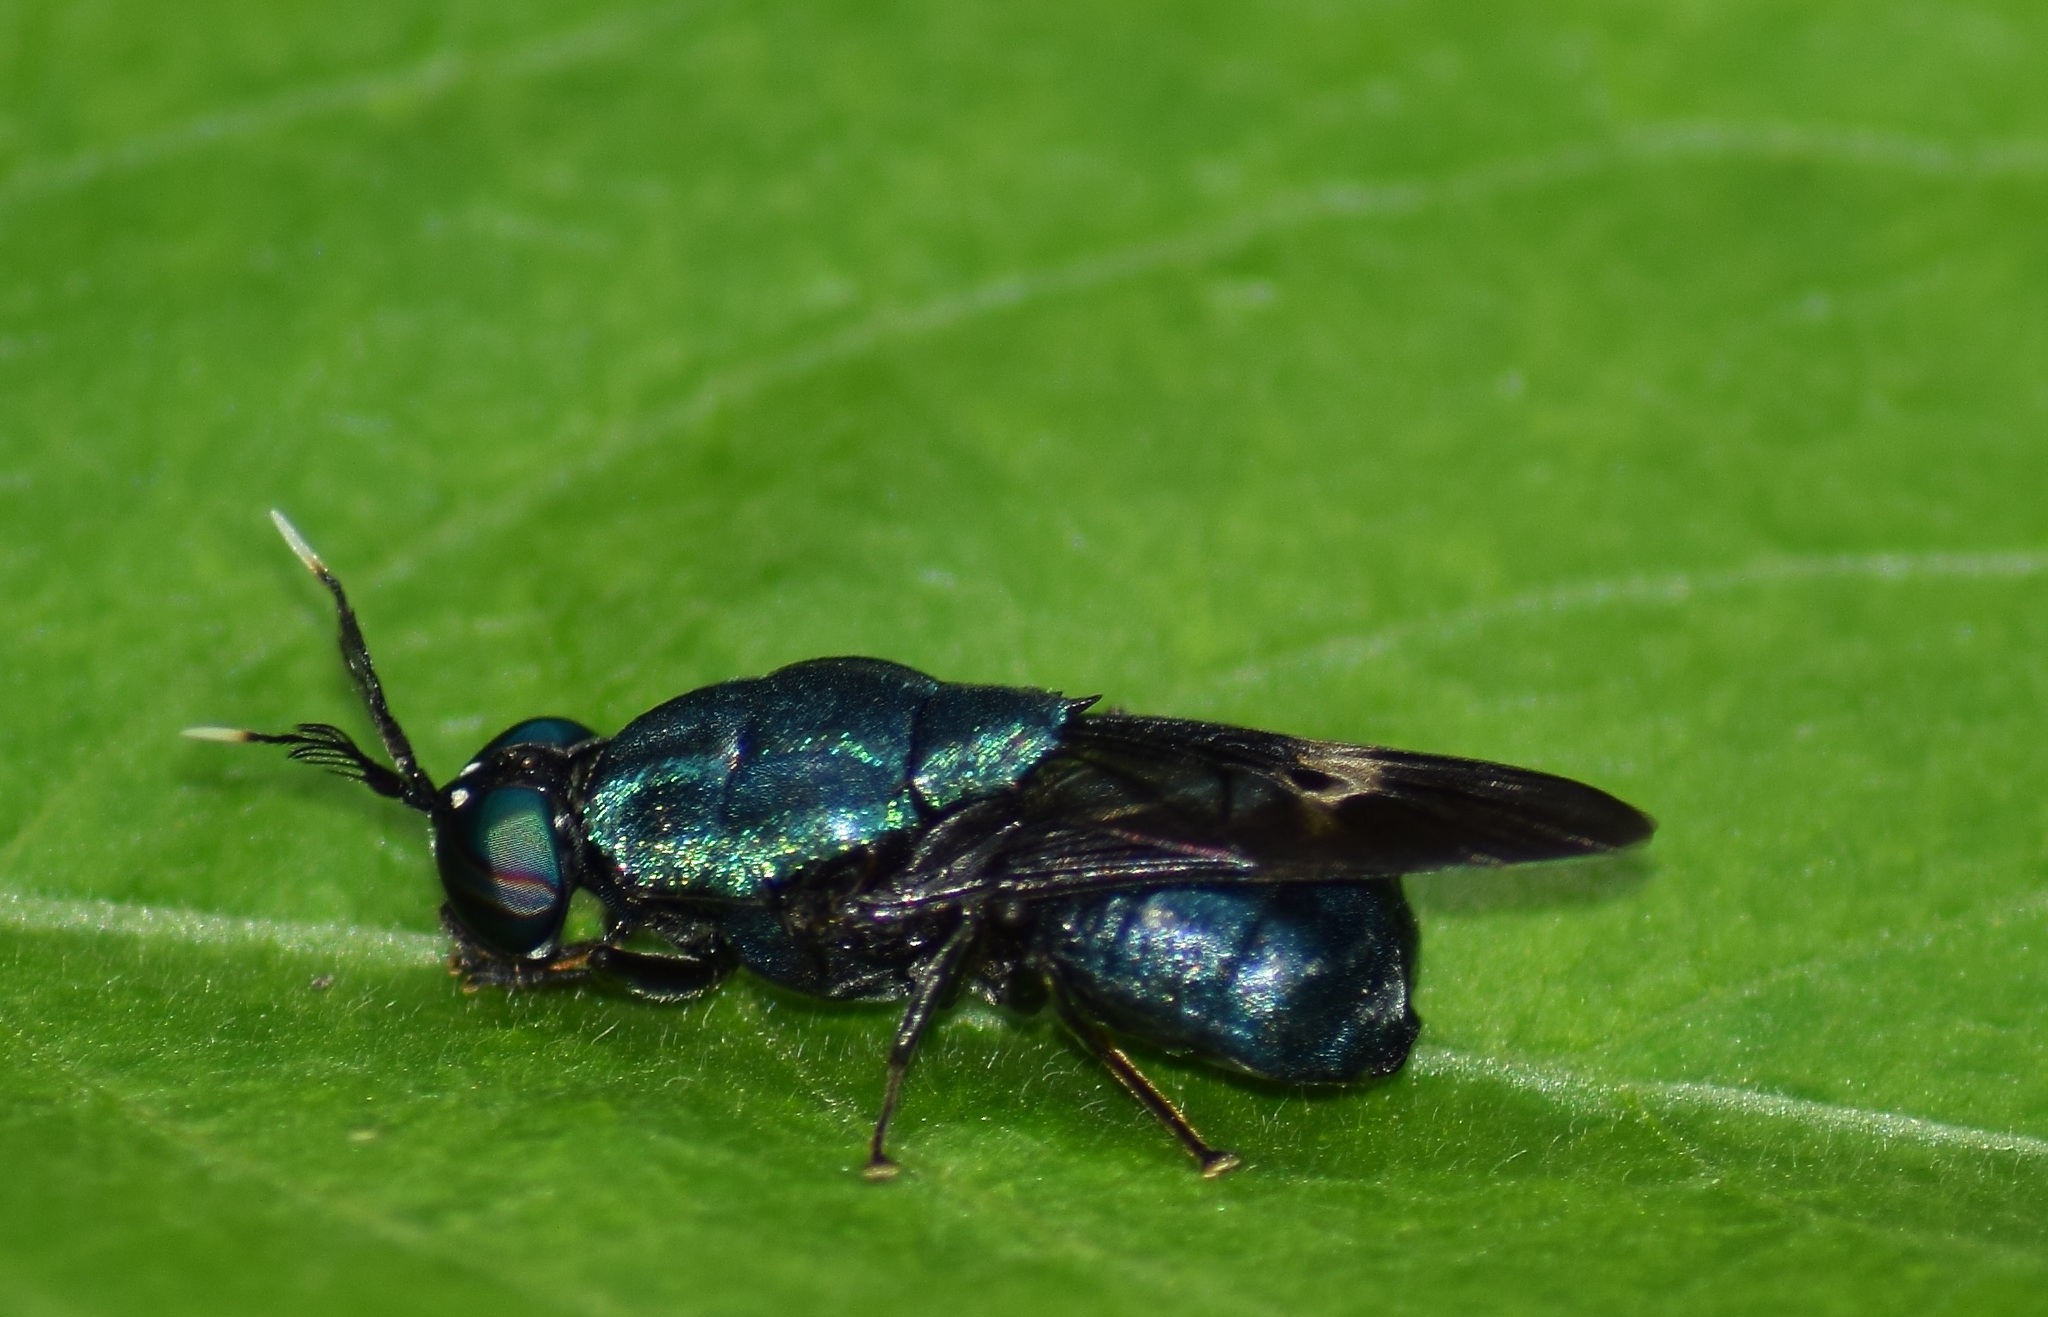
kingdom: Animalia
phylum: Arthropoda
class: Insecta
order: Diptera
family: Stratiomyidae
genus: Ptilocera
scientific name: Ptilocera continua
